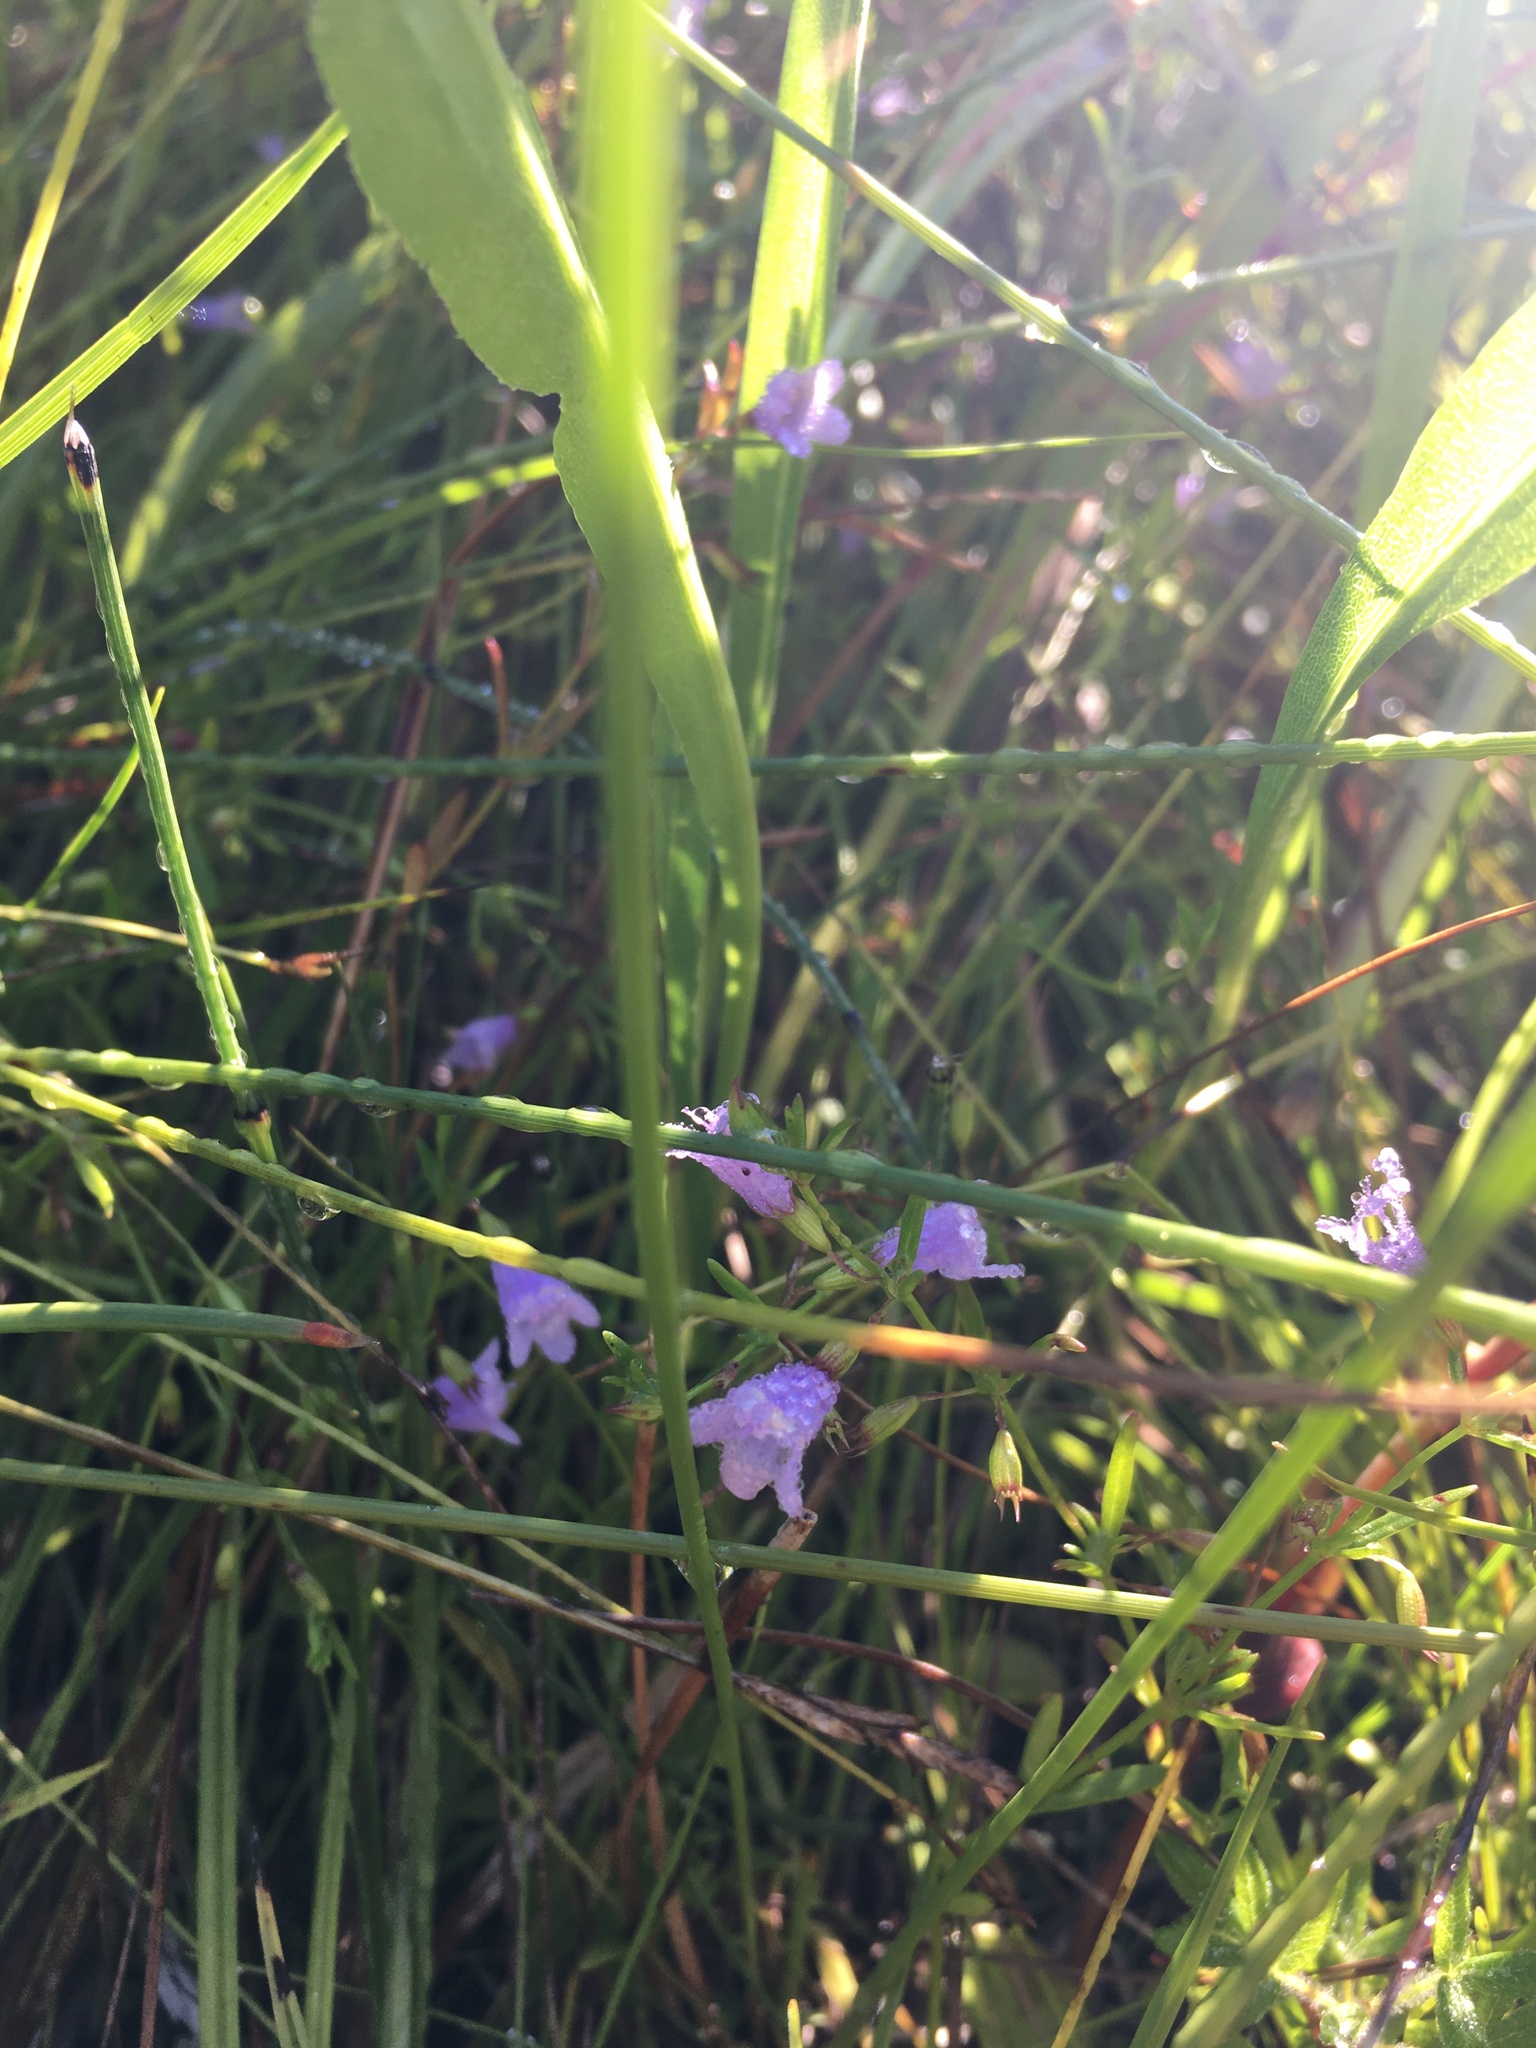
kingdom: Plantae
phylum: Tracheophyta
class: Magnoliopsida
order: Lamiales
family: Lamiaceae
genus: Clinopodium
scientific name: Clinopodium arkansanum
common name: Limestone calamint
